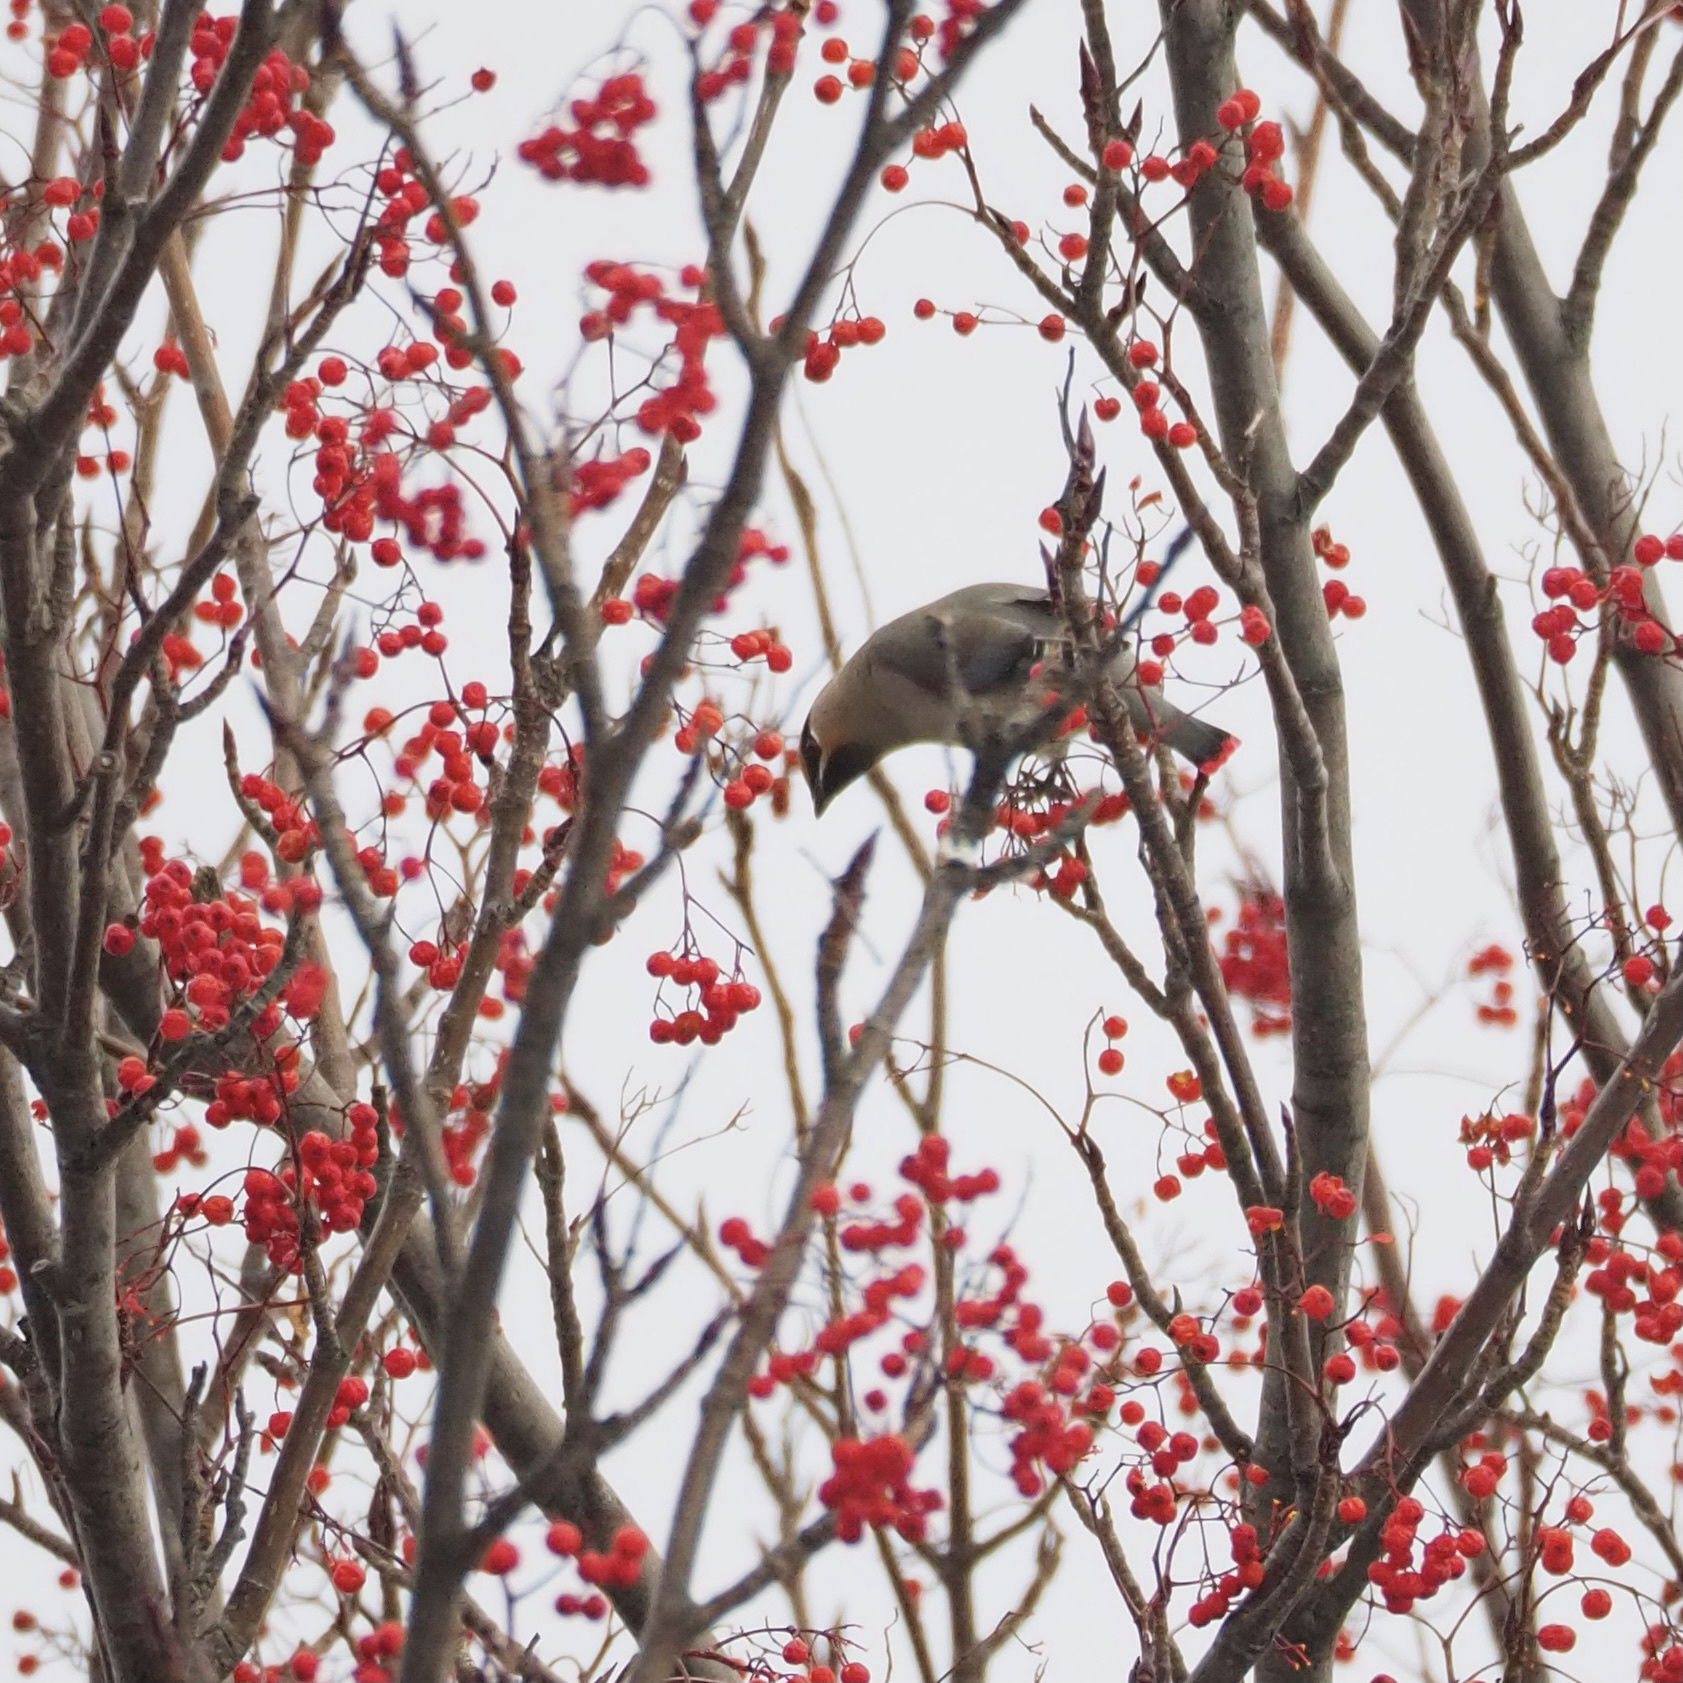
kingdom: Animalia
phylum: Chordata
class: Aves
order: Passeriformes
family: Bombycillidae
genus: Bombycilla
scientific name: Bombycilla japonica
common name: Japanese waxwing
